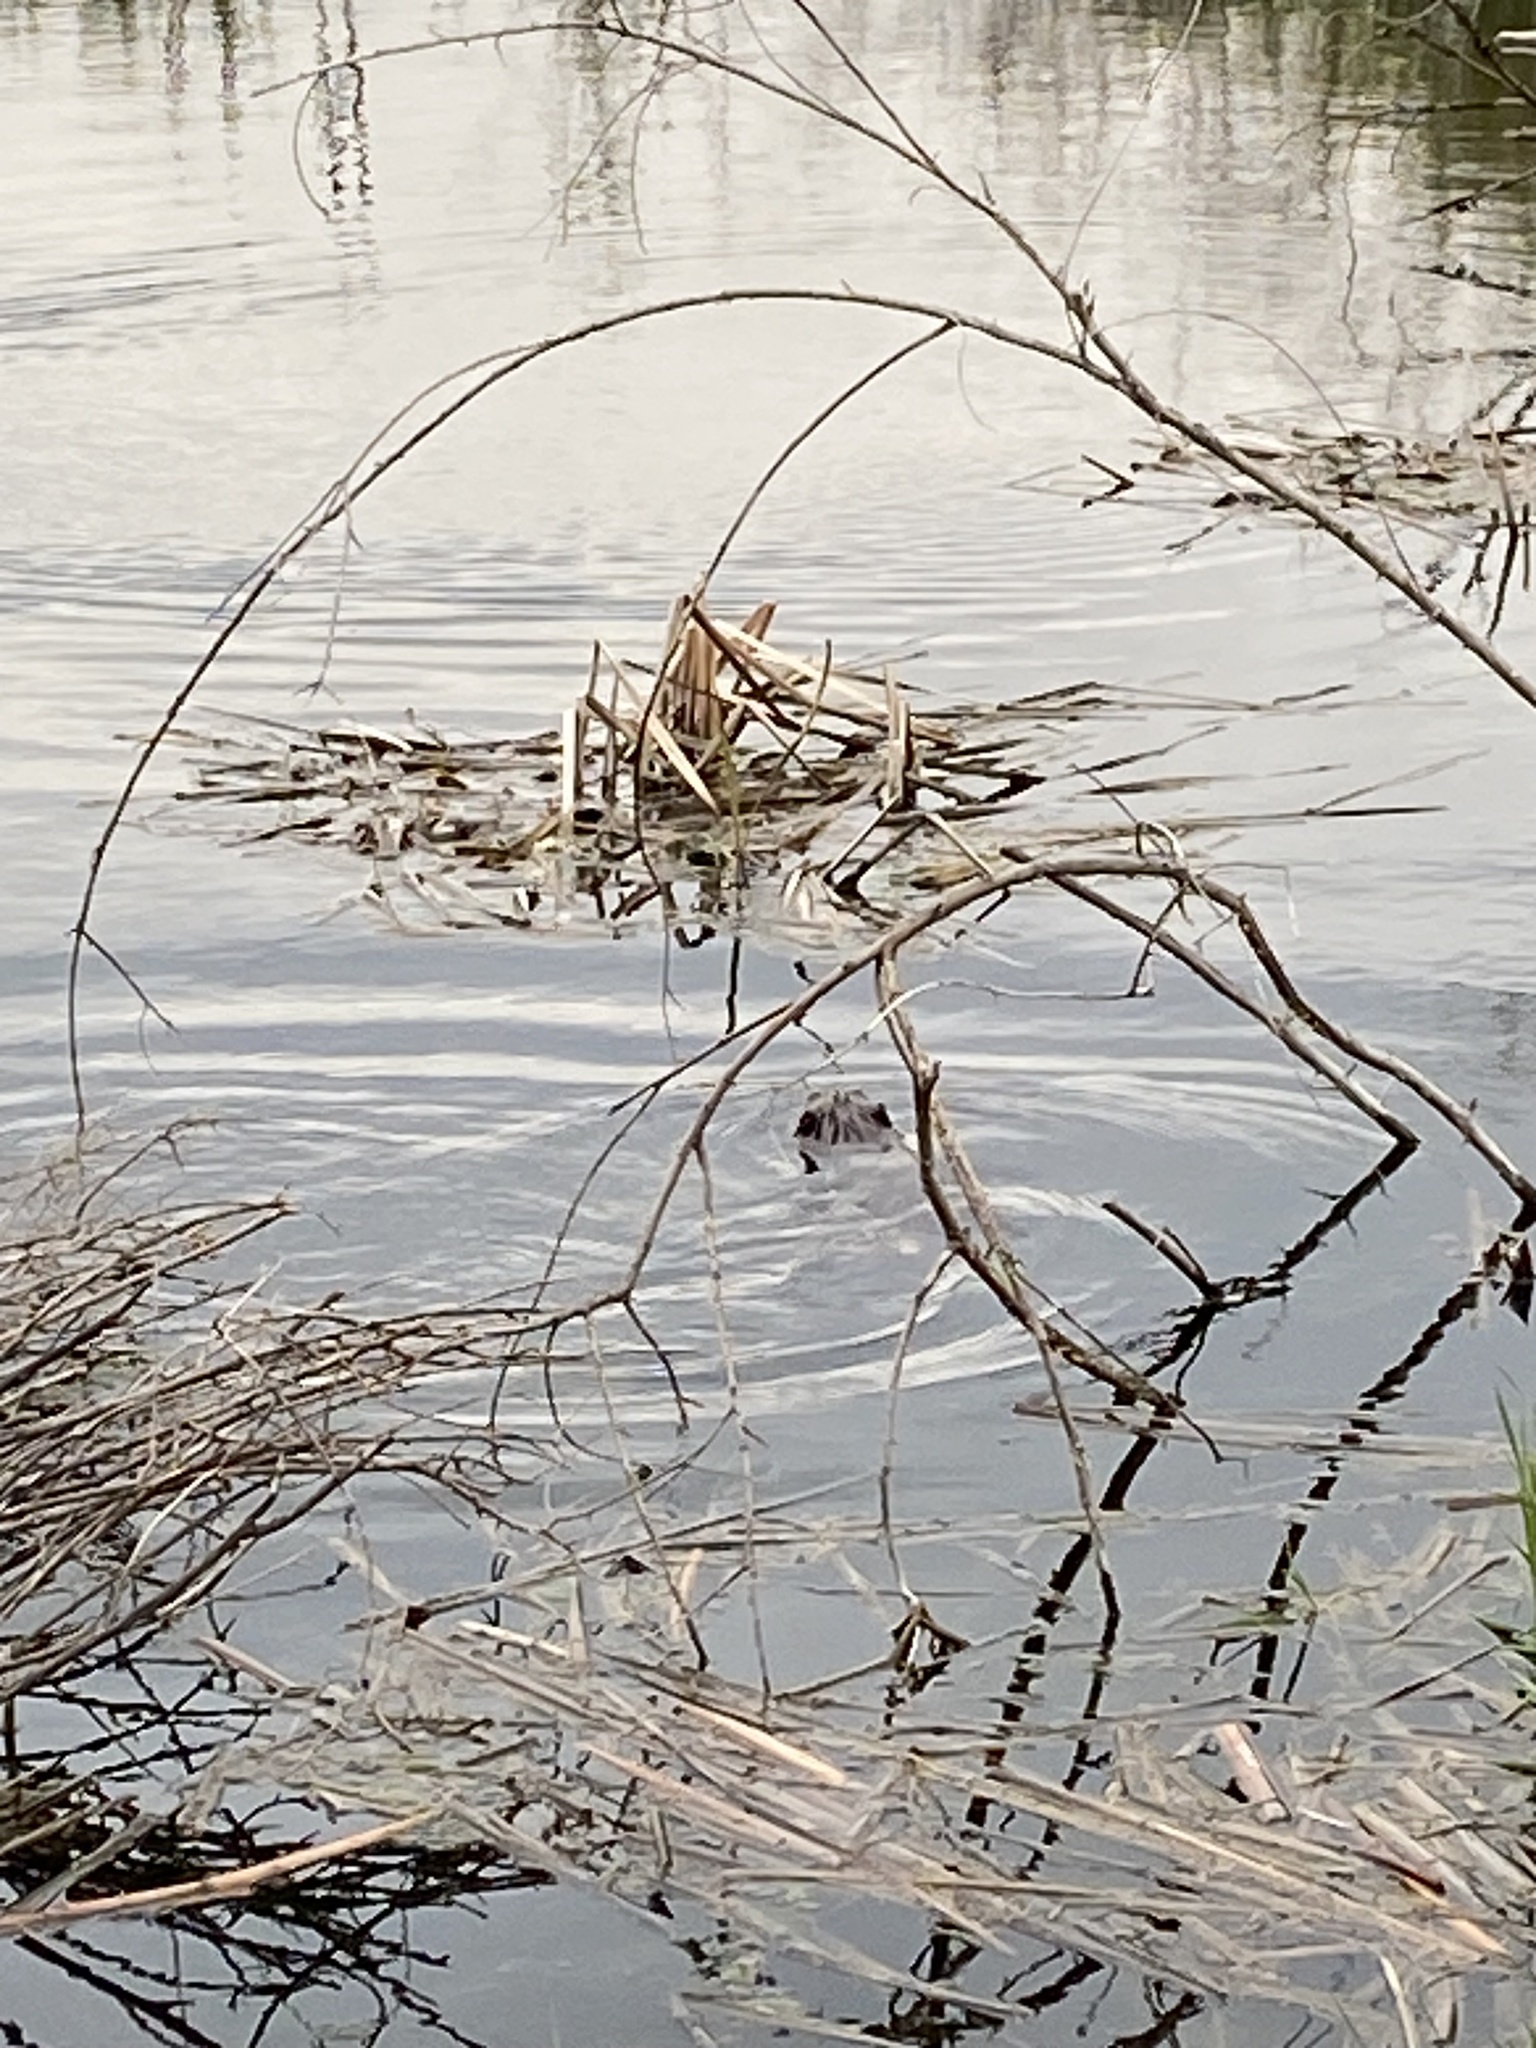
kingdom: Animalia
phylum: Chordata
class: Mammalia
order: Rodentia
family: Castoridae
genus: Castor
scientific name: Castor canadensis
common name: American beaver
